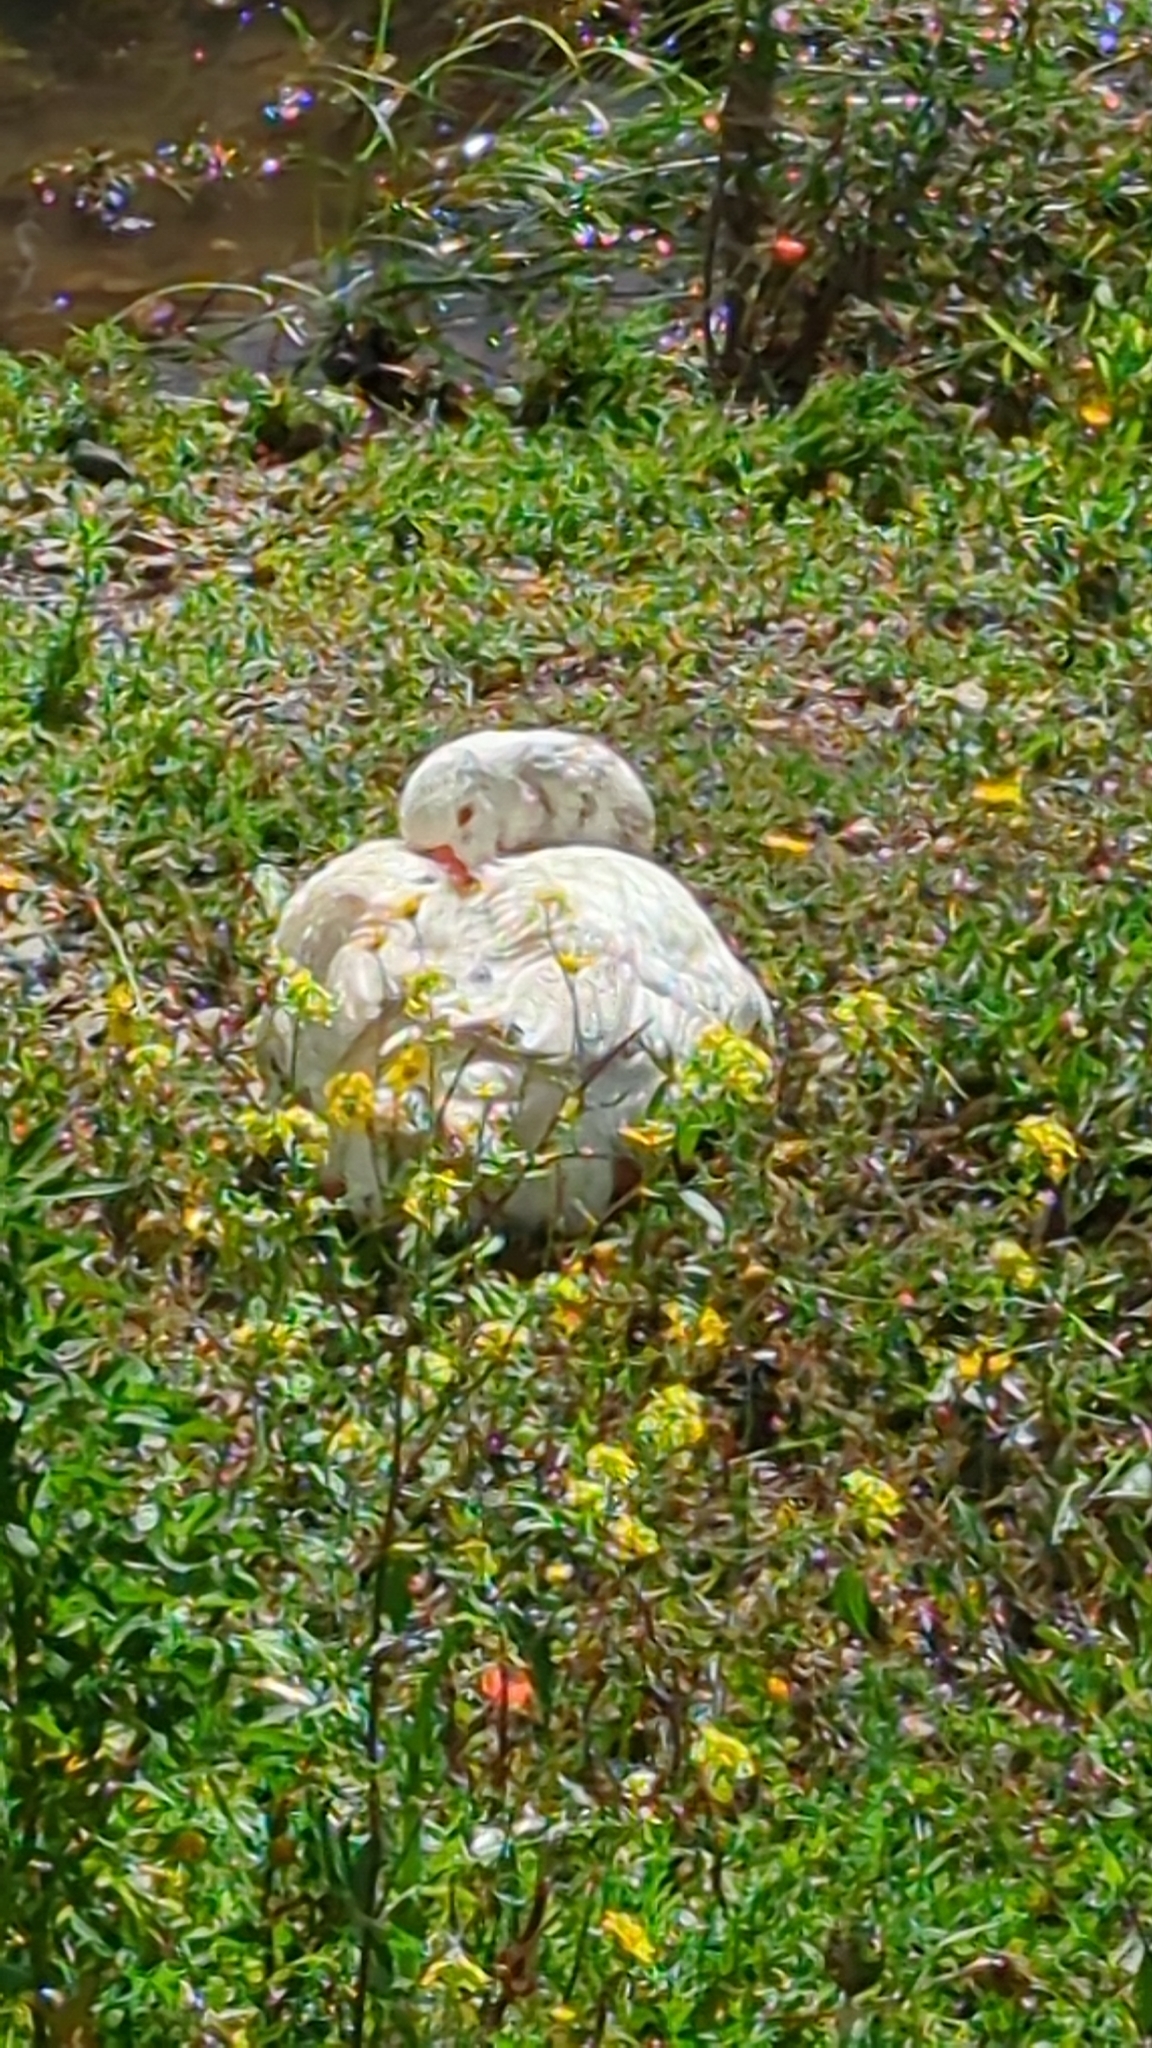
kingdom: Animalia
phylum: Chordata
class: Aves
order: Anseriformes
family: Anatidae
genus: Anser
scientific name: Anser anser
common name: Greylag goose
